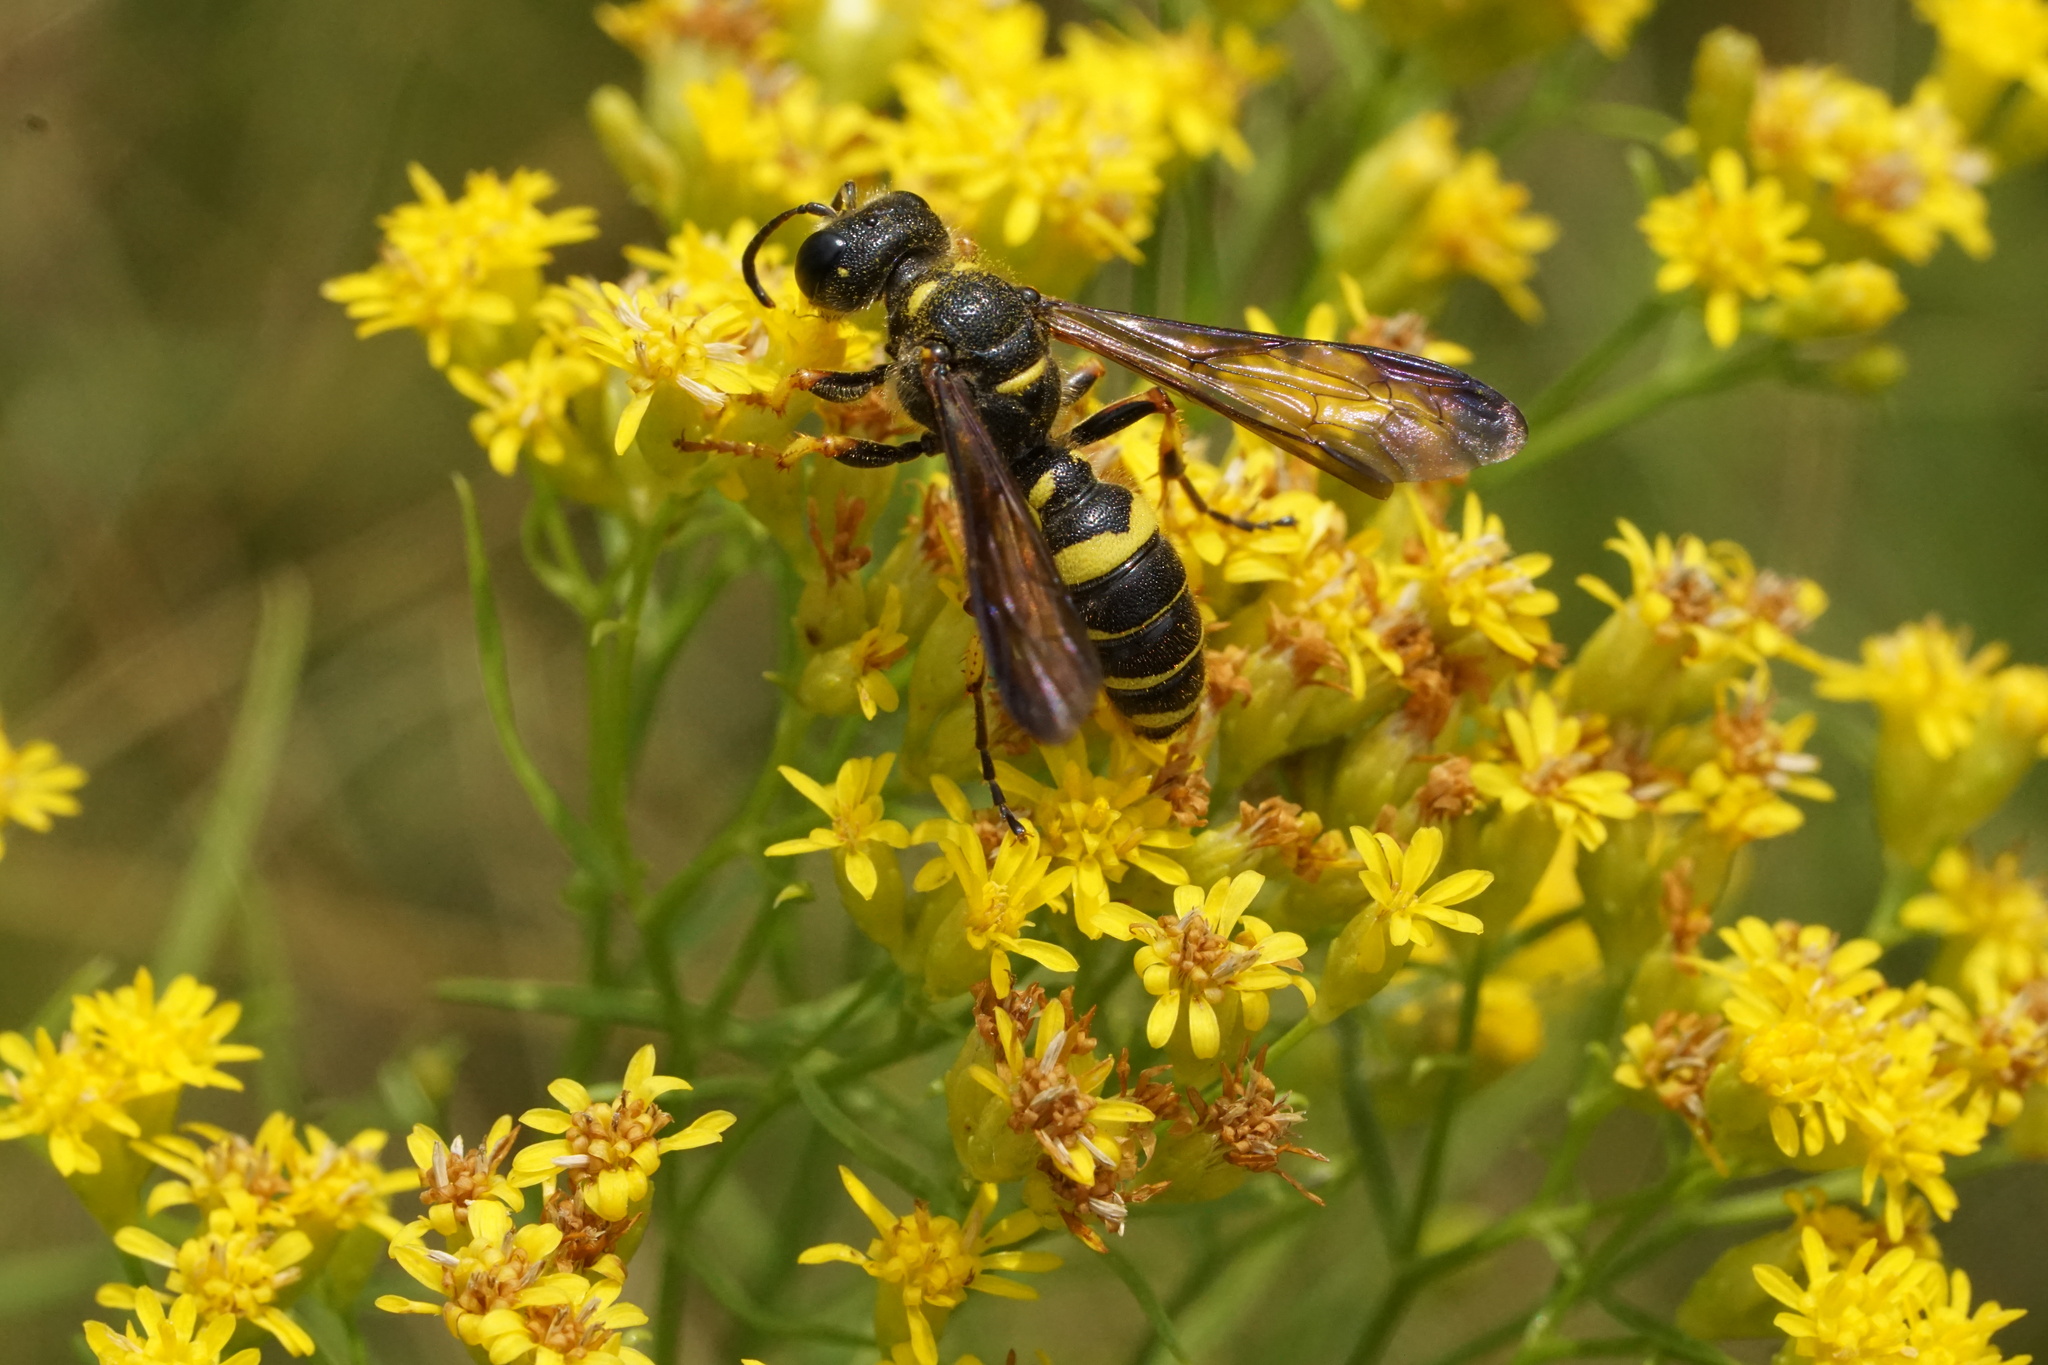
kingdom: Animalia
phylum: Arthropoda
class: Insecta
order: Hymenoptera
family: Crabronidae
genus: Cerceris
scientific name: Cerceris halone
